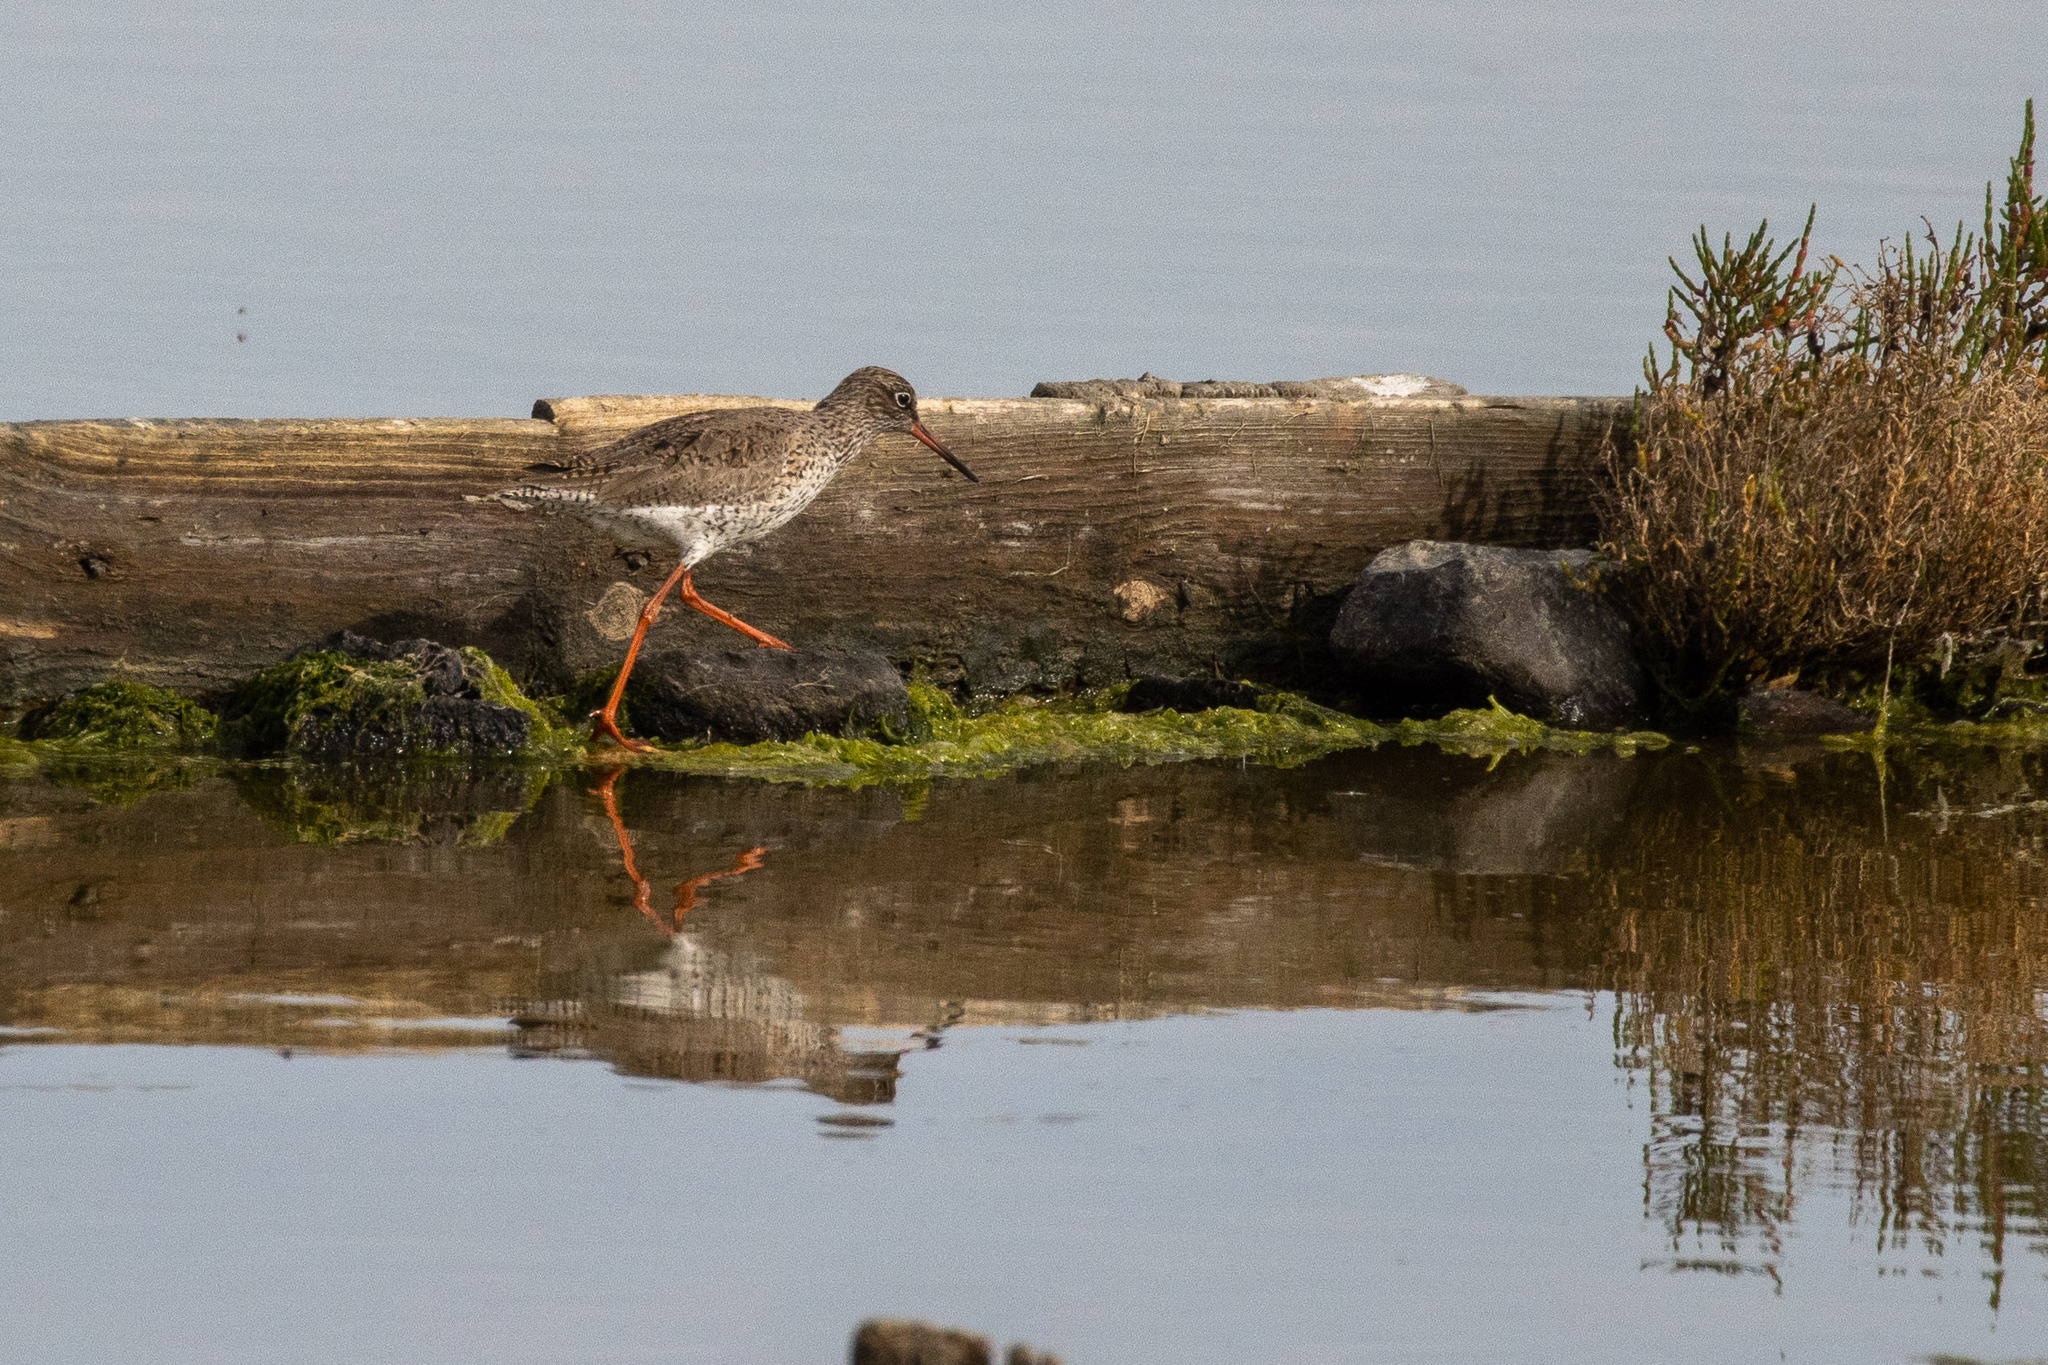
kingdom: Animalia
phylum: Chordata
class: Aves
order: Charadriiformes
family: Scolopacidae
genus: Tringa
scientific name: Tringa totanus
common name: Common redshank
